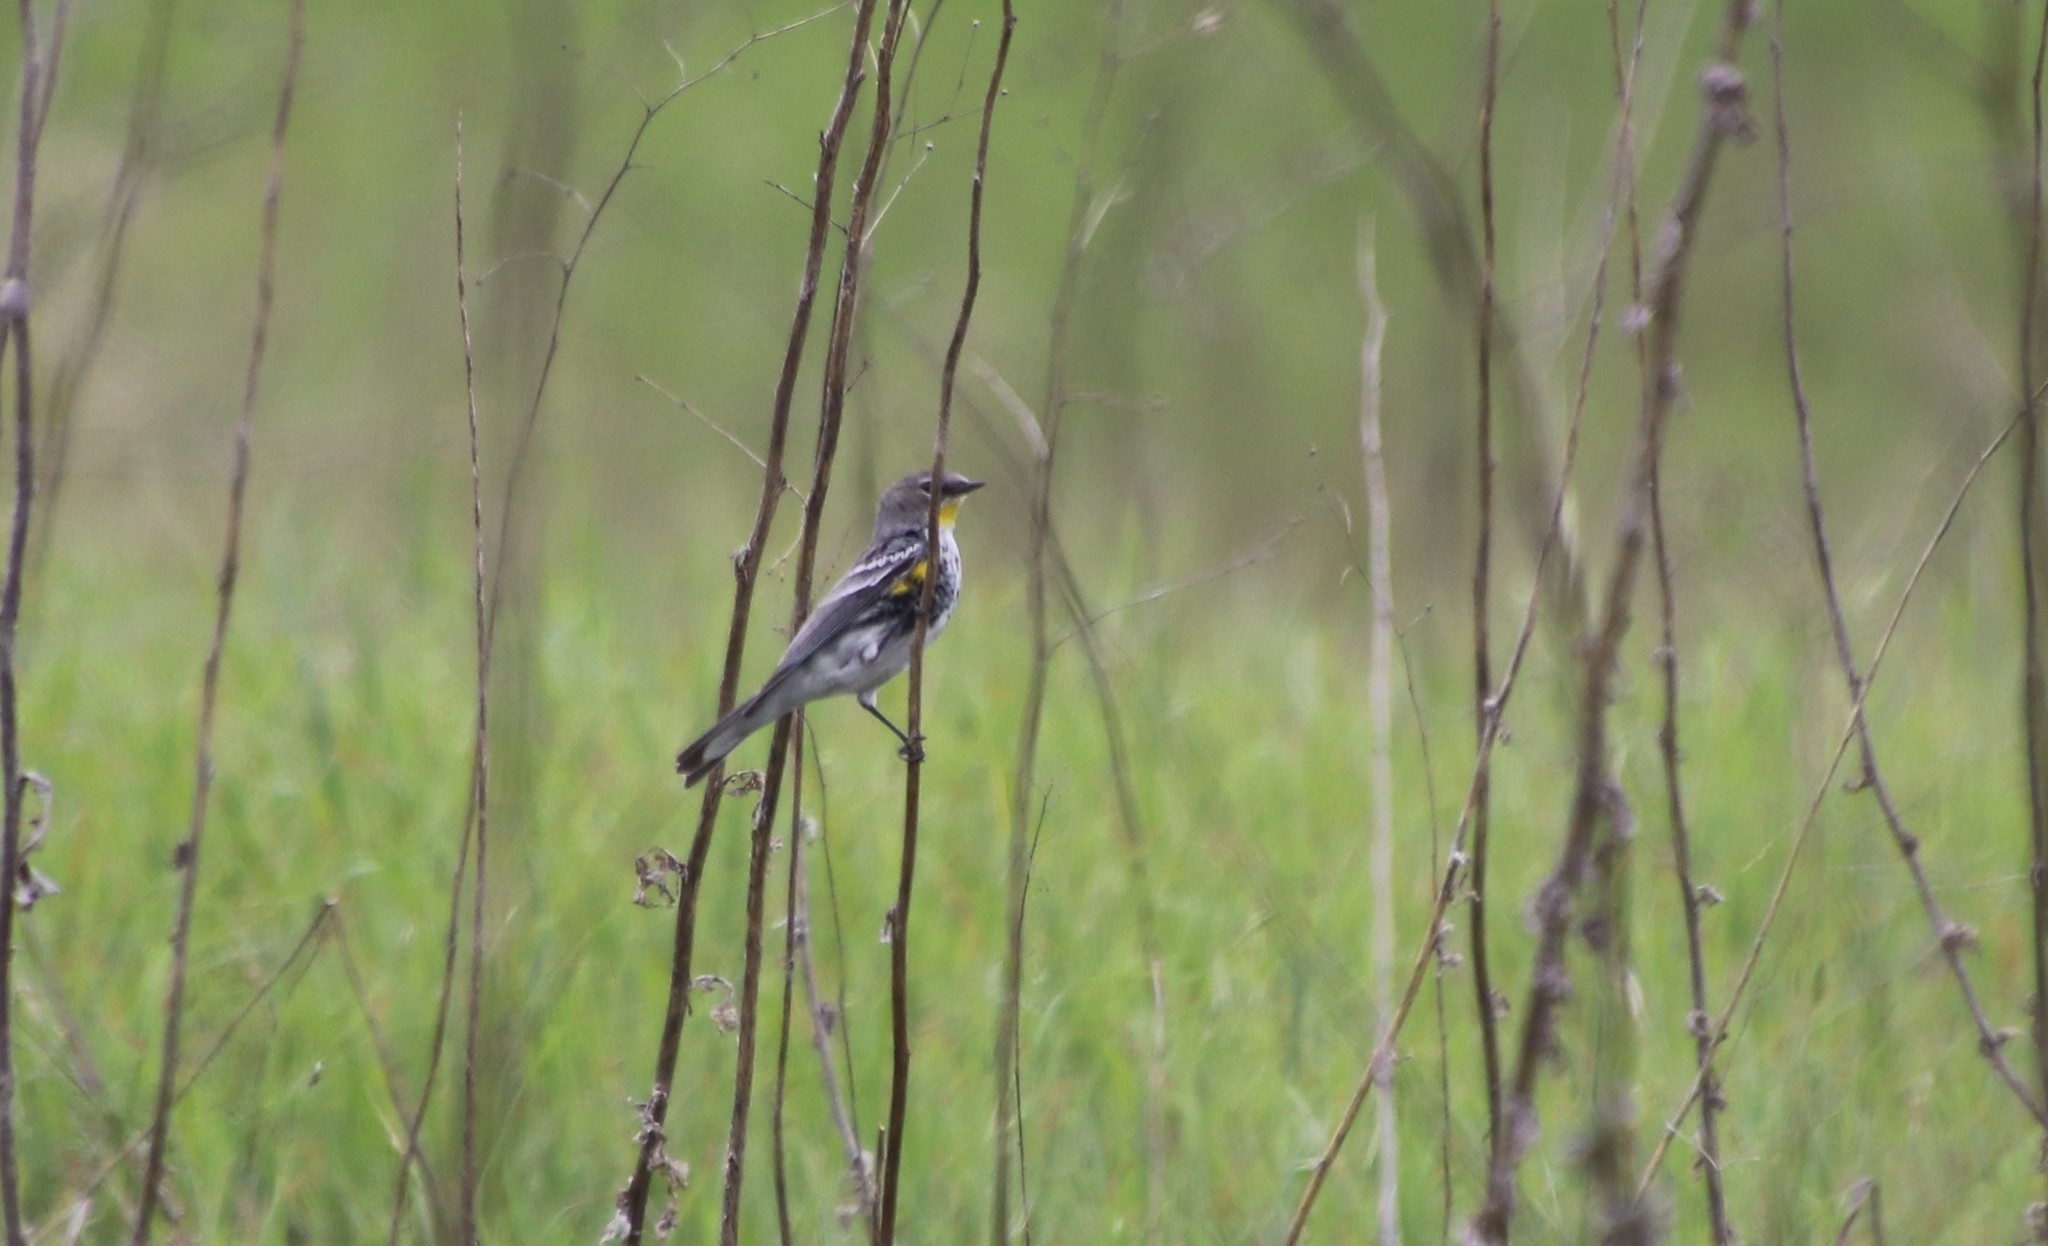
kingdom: Animalia
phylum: Chordata
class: Aves
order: Passeriformes
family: Parulidae
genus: Setophaga
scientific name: Setophaga auduboni
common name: Audubon's warbler
